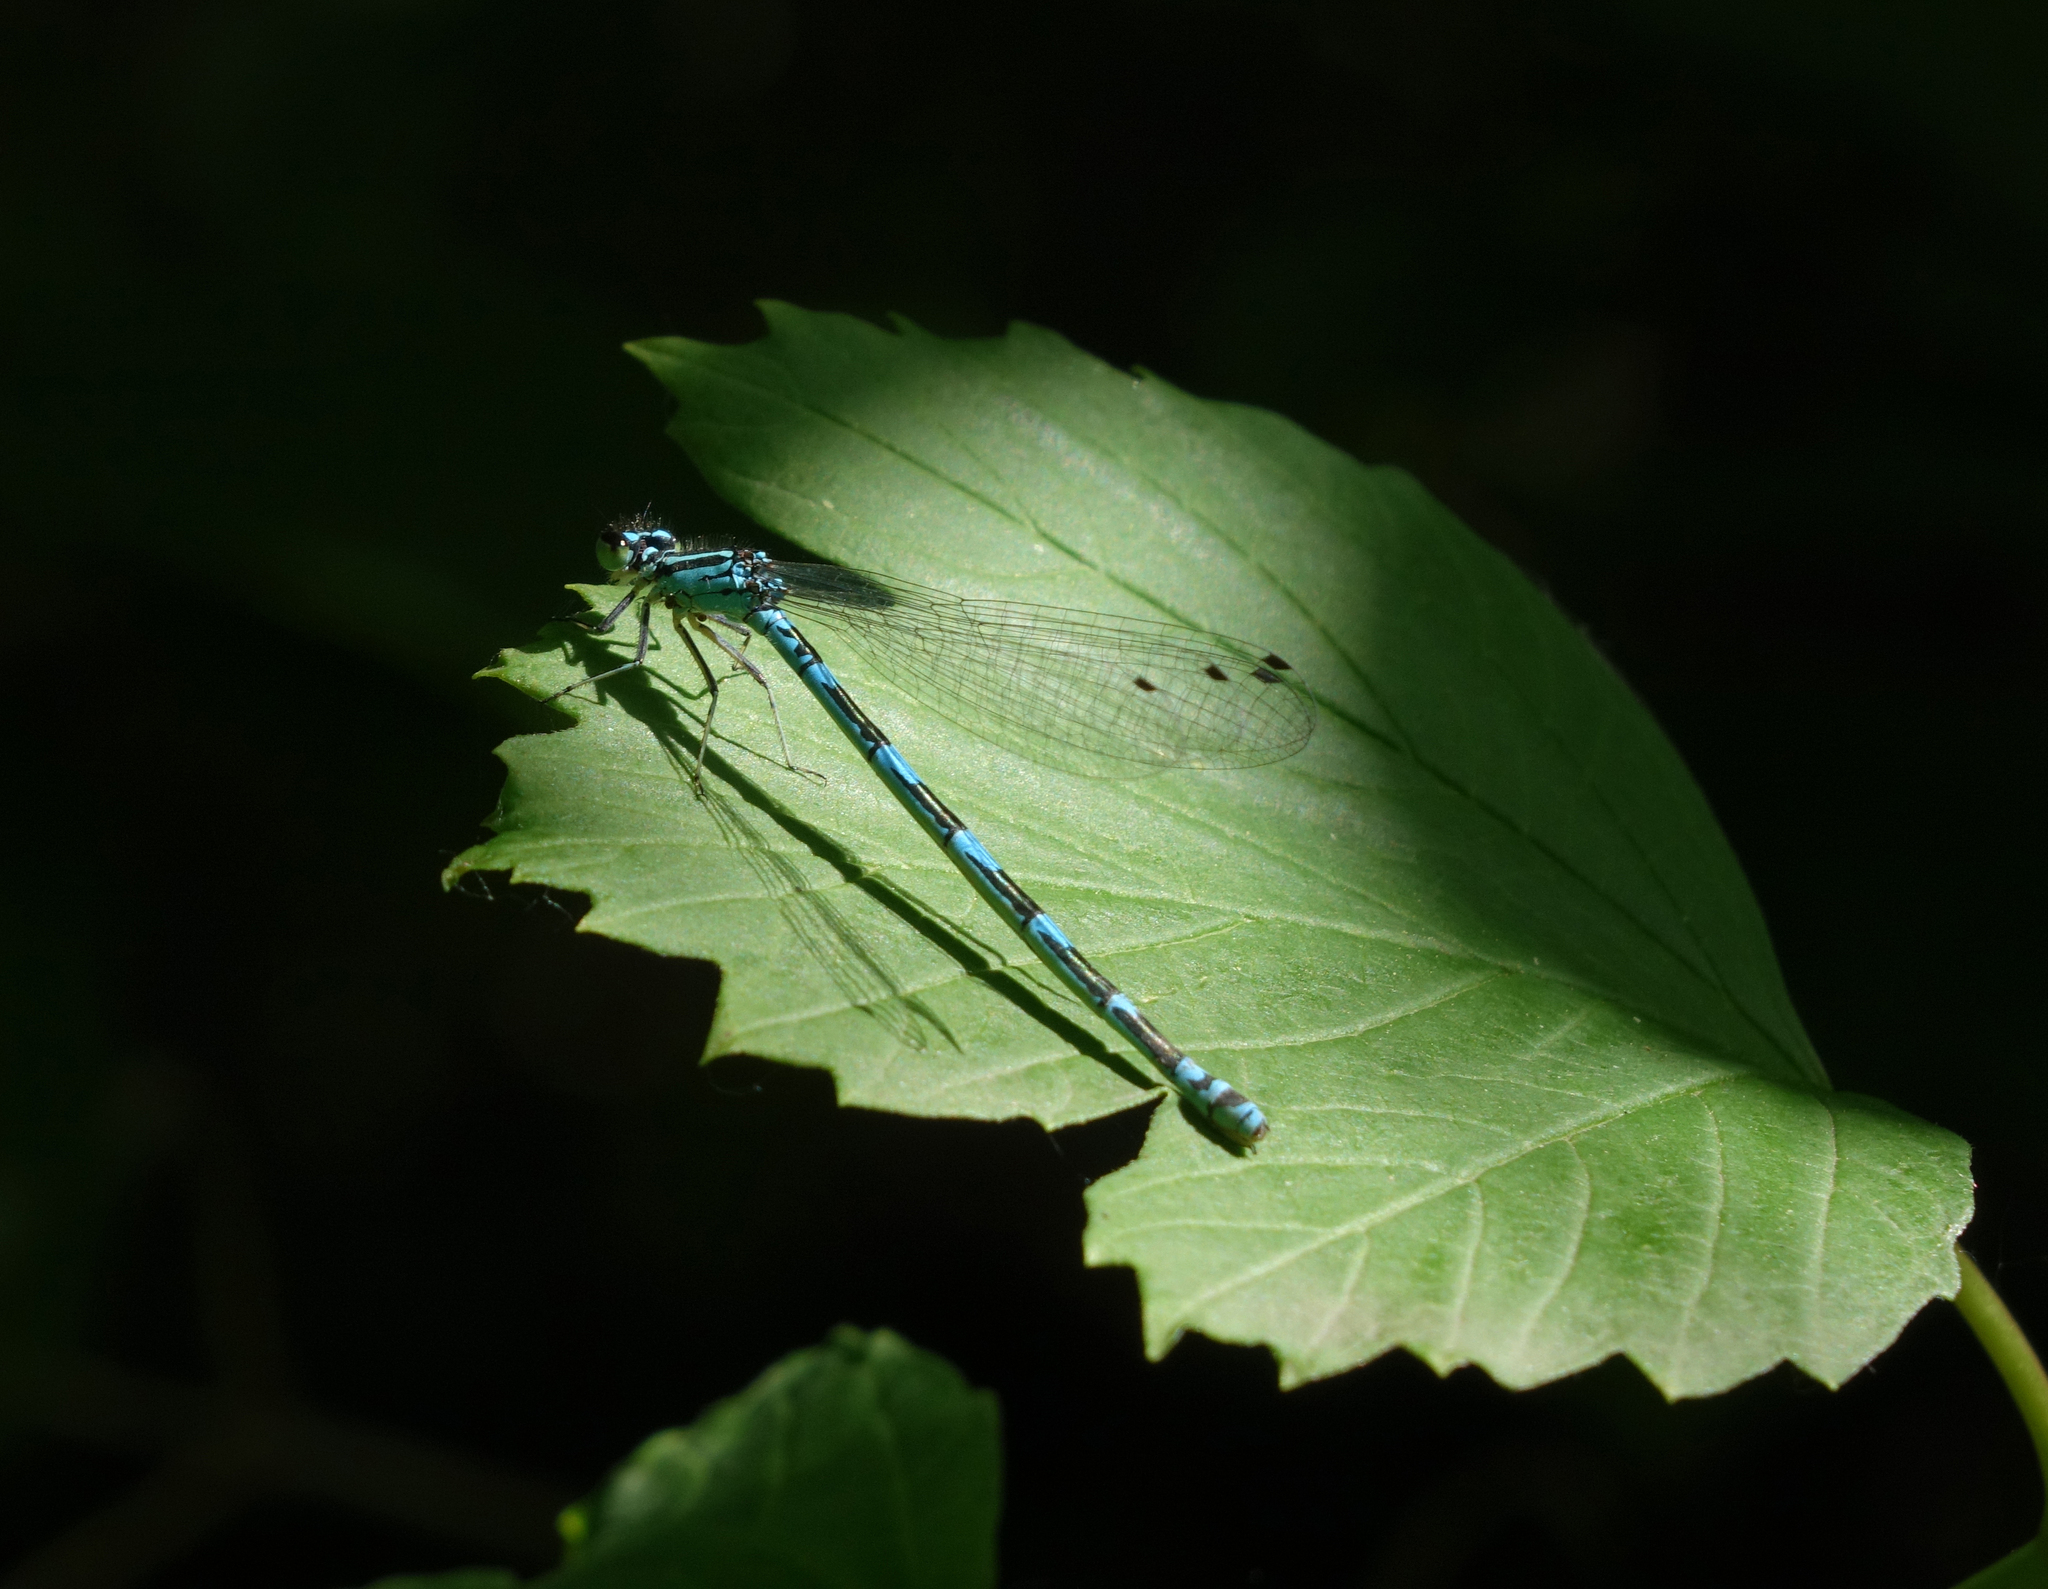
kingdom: Animalia
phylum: Arthropoda
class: Insecta
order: Odonata
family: Coenagrionidae
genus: Coenagrion
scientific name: Coenagrion puella
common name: Azure damselfly
